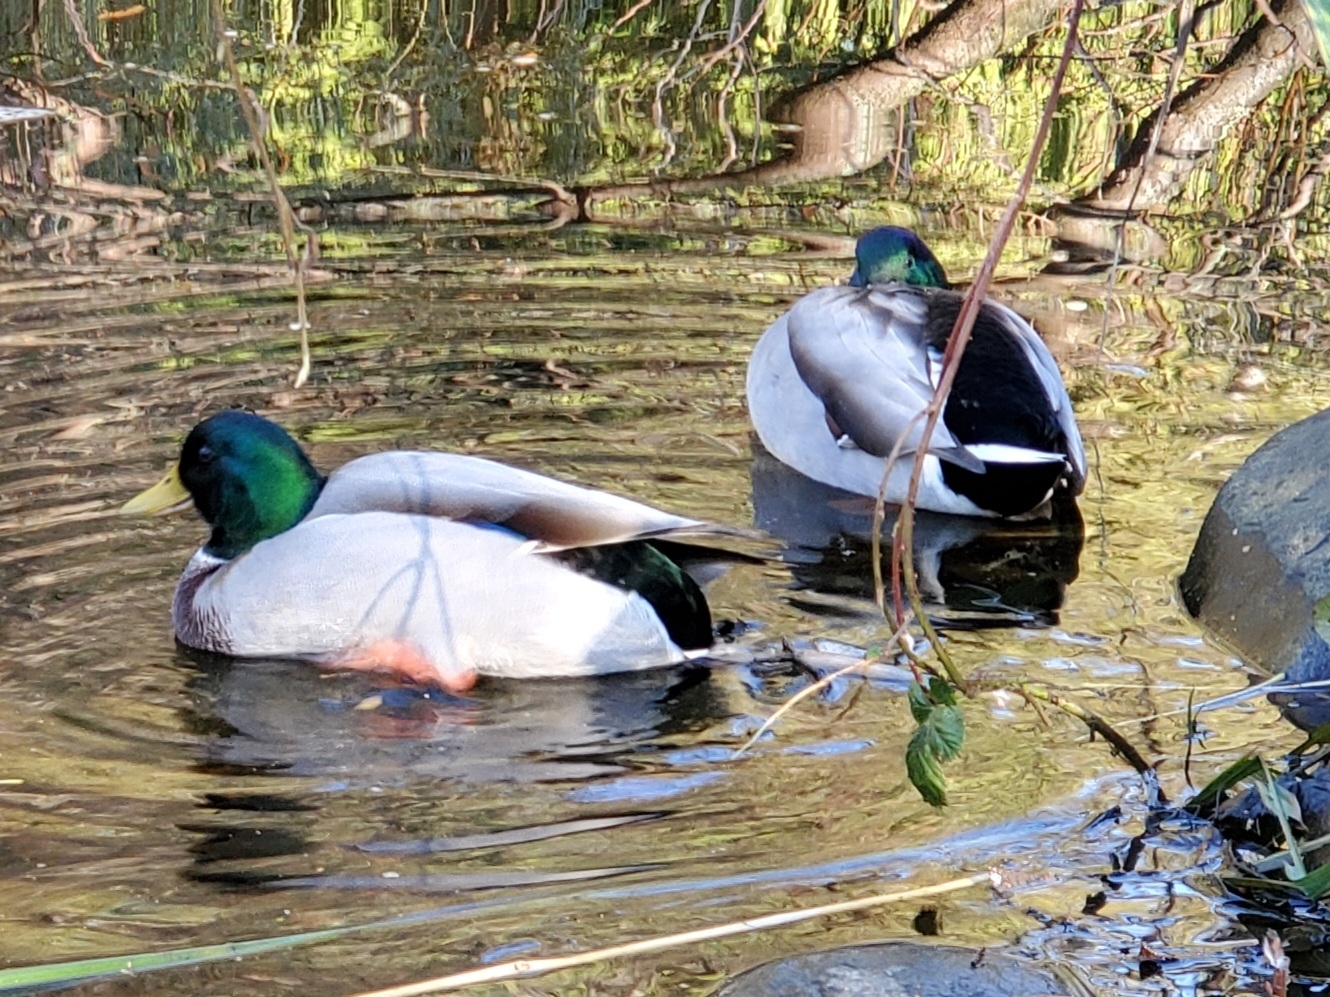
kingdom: Animalia
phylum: Chordata
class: Aves
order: Anseriformes
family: Anatidae
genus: Anas
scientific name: Anas platyrhynchos
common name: Mallard
